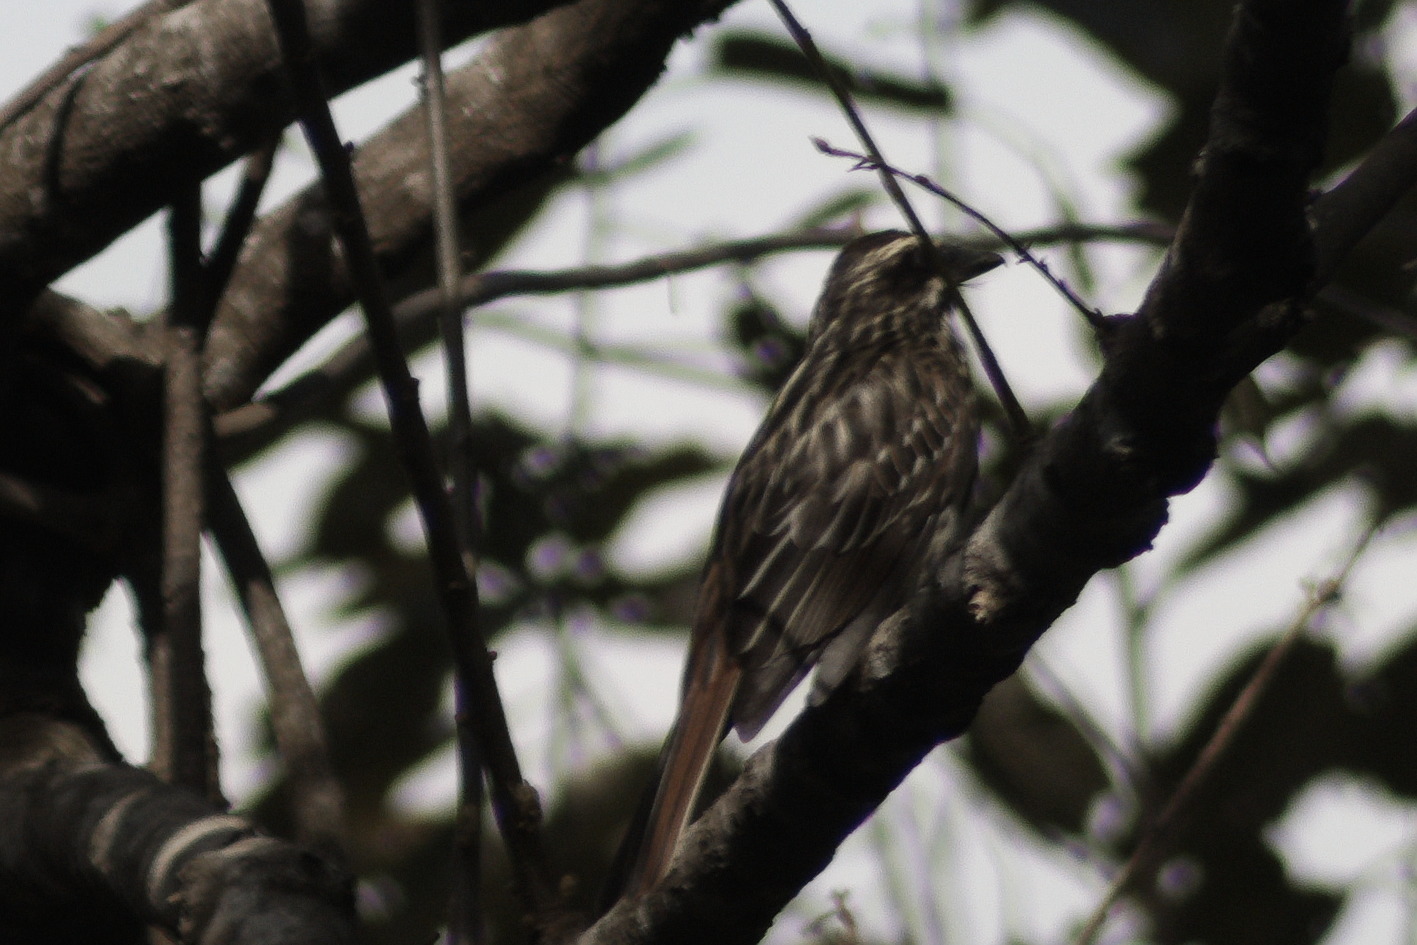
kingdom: Animalia
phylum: Chordata
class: Aves
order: Passeriformes
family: Tyrannidae
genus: Myiodynastes
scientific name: Myiodynastes maculatus
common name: Streaked flycatcher
